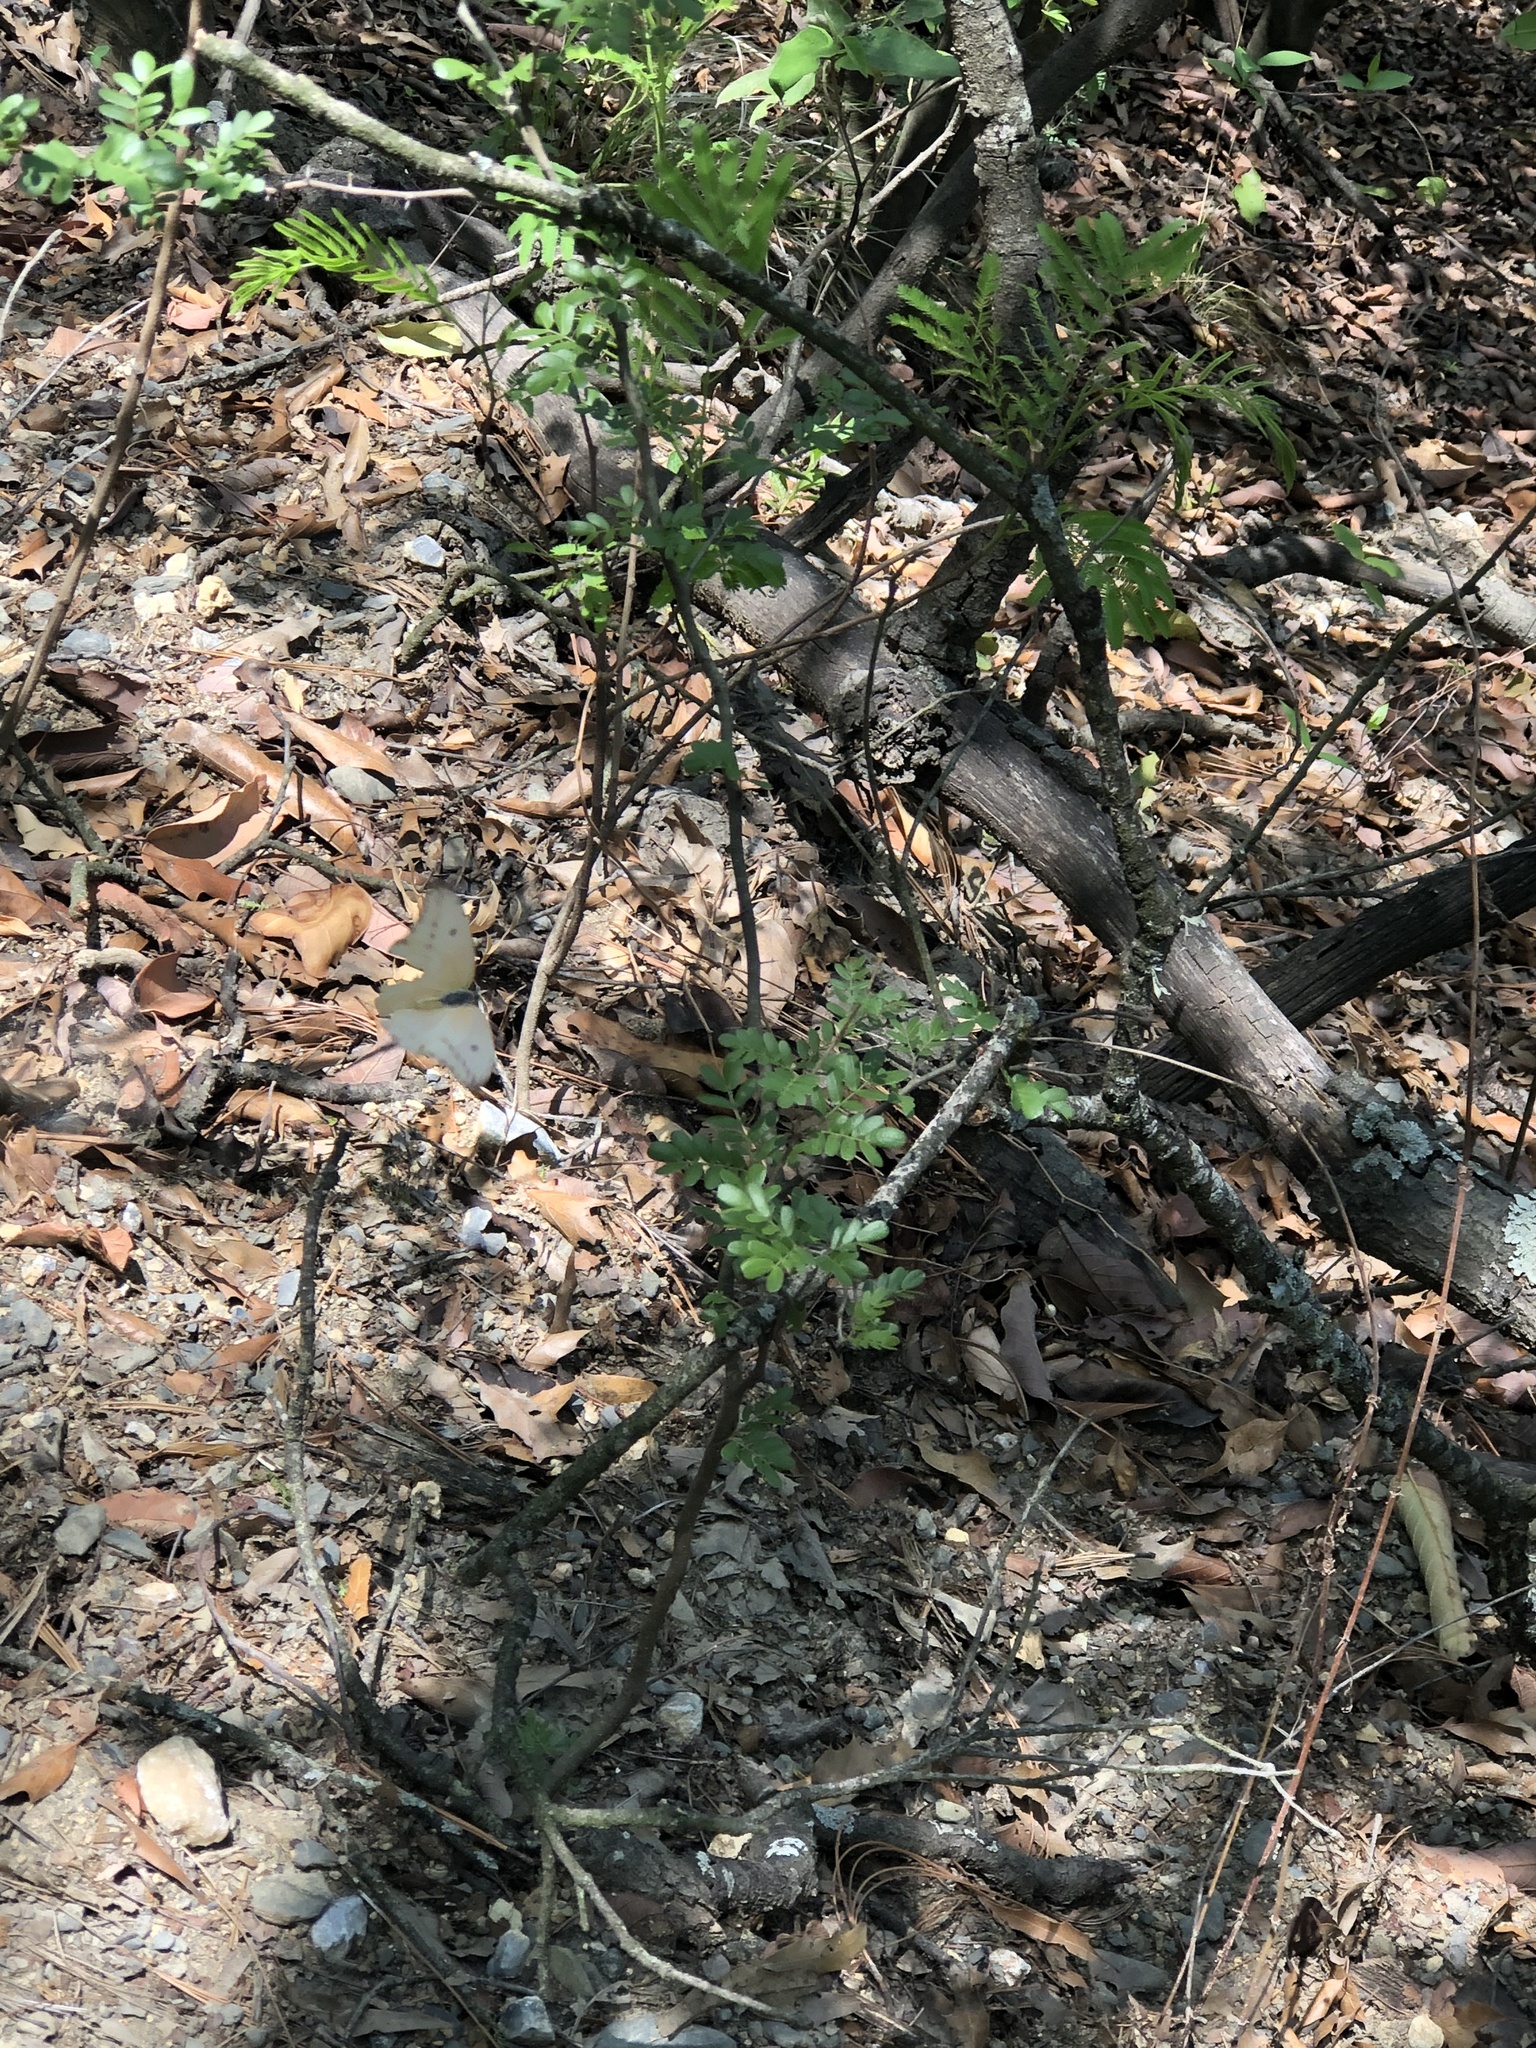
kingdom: Animalia
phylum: Arthropoda
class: Insecta
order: Lepidoptera
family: Pieridae
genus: Phoebis
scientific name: Phoebis agarithe
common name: Large orange sulphur
